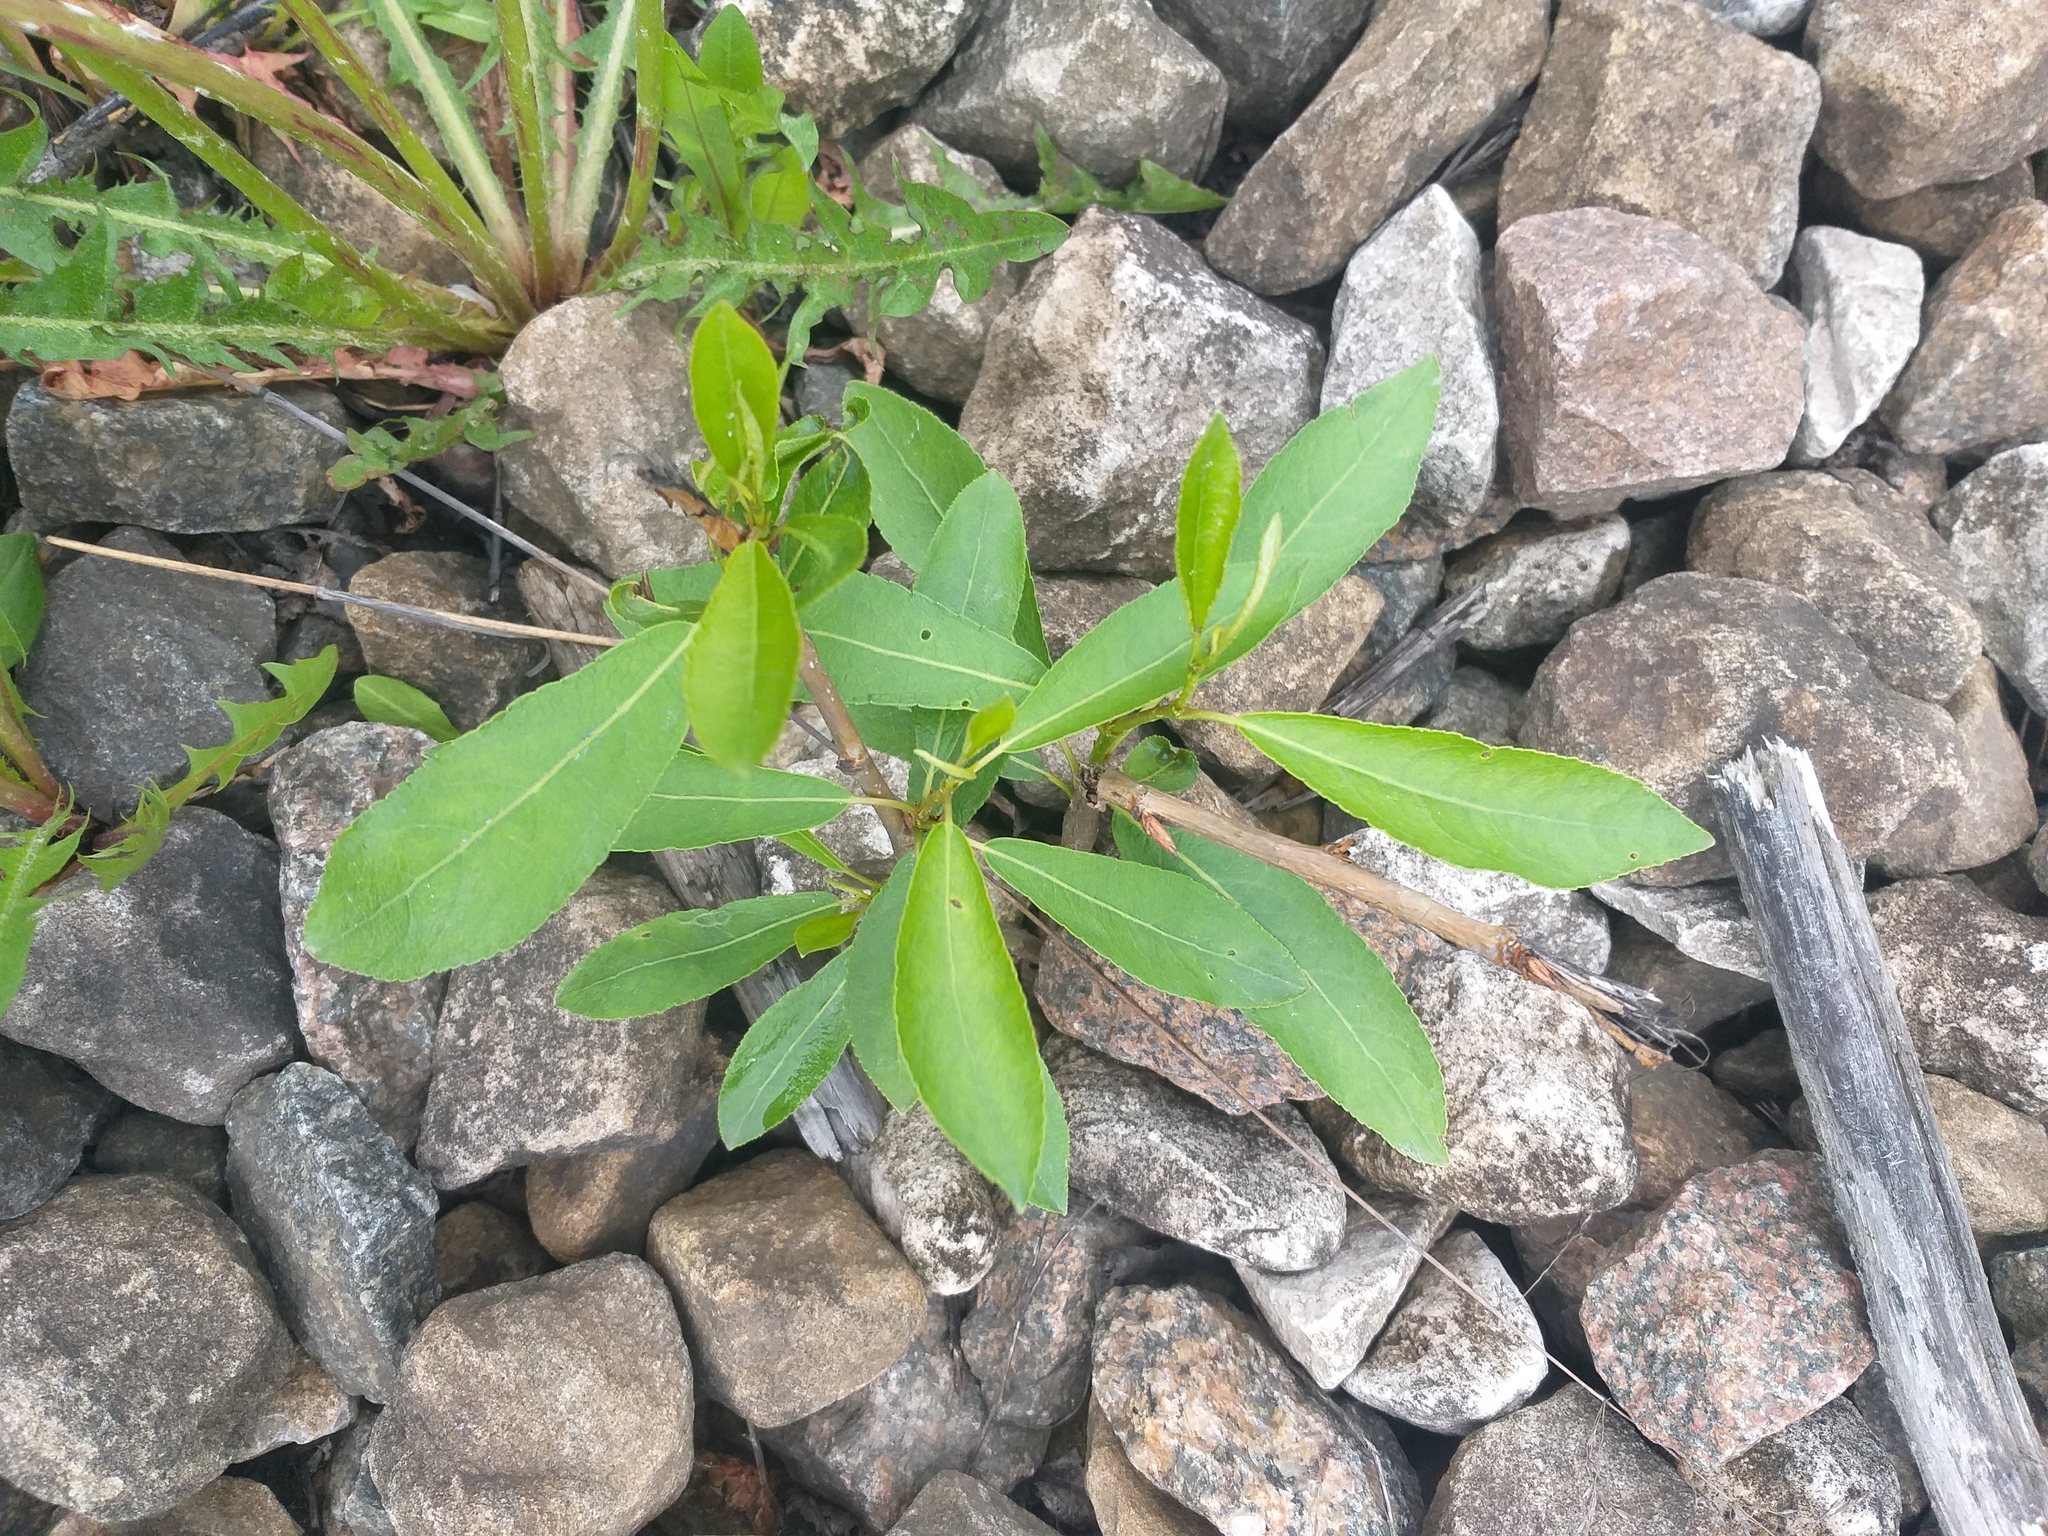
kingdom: Plantae
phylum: Tracheophyta
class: Magnoliopsida
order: Malpighiales
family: Salicaceae
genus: Populus
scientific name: Populus
